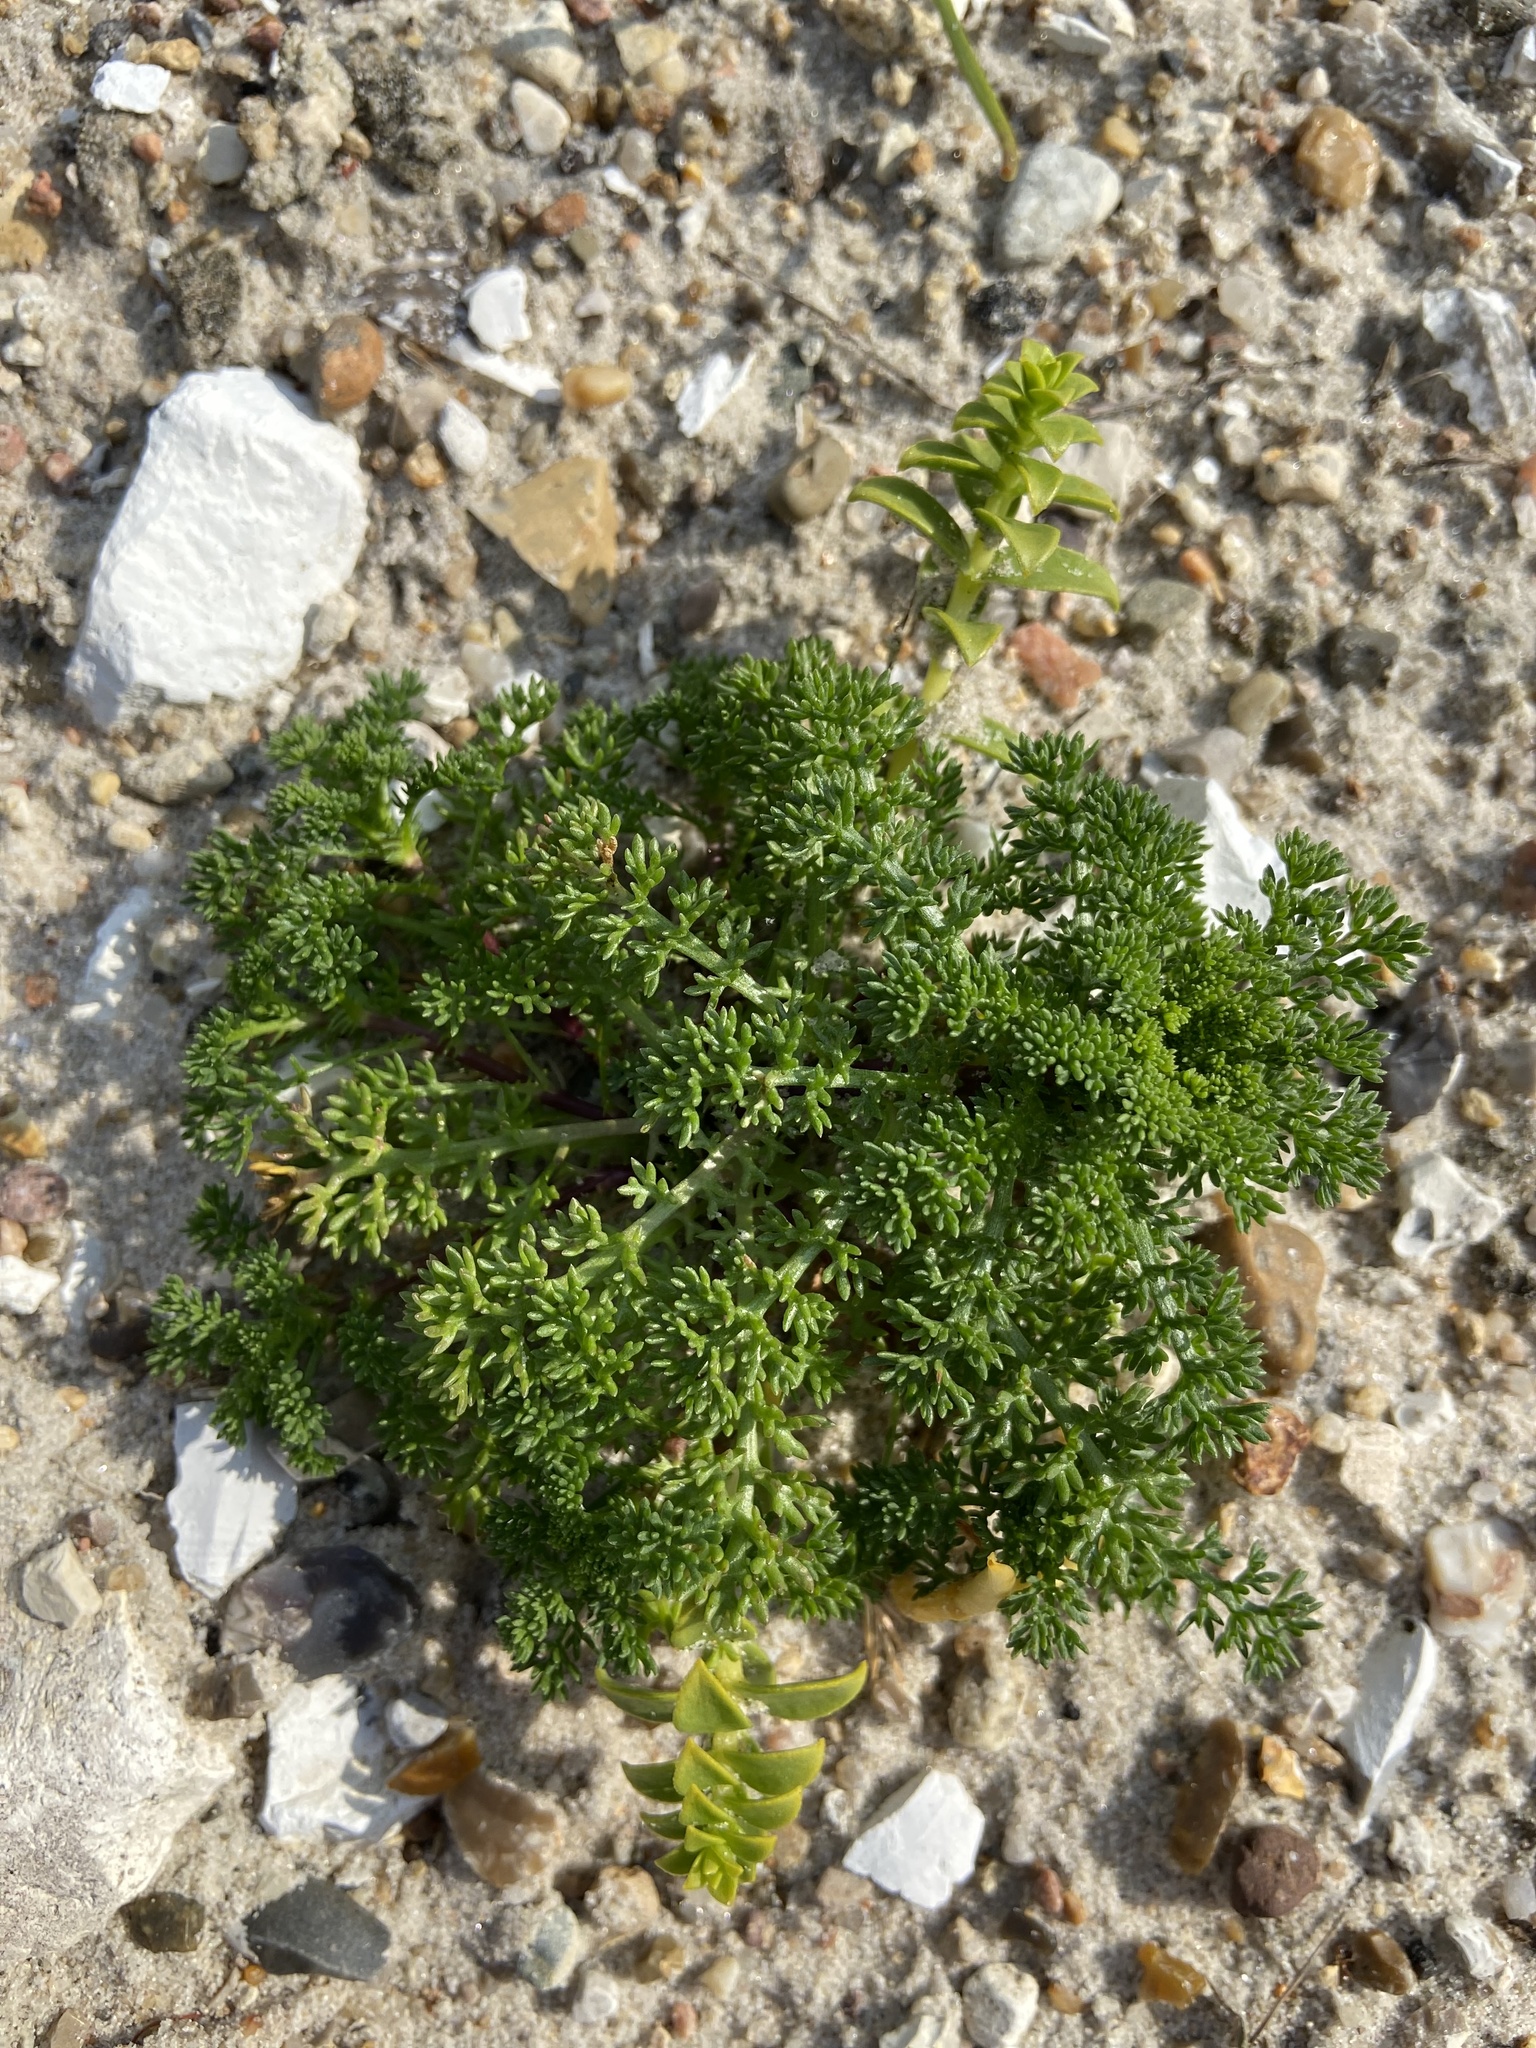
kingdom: Plantae
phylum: Tracheophyta
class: Magnoliopsida
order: Asterales
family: Asteraceae
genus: Tripleurospermum
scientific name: Tripleurospermum maritimum
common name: Sea mayweed
